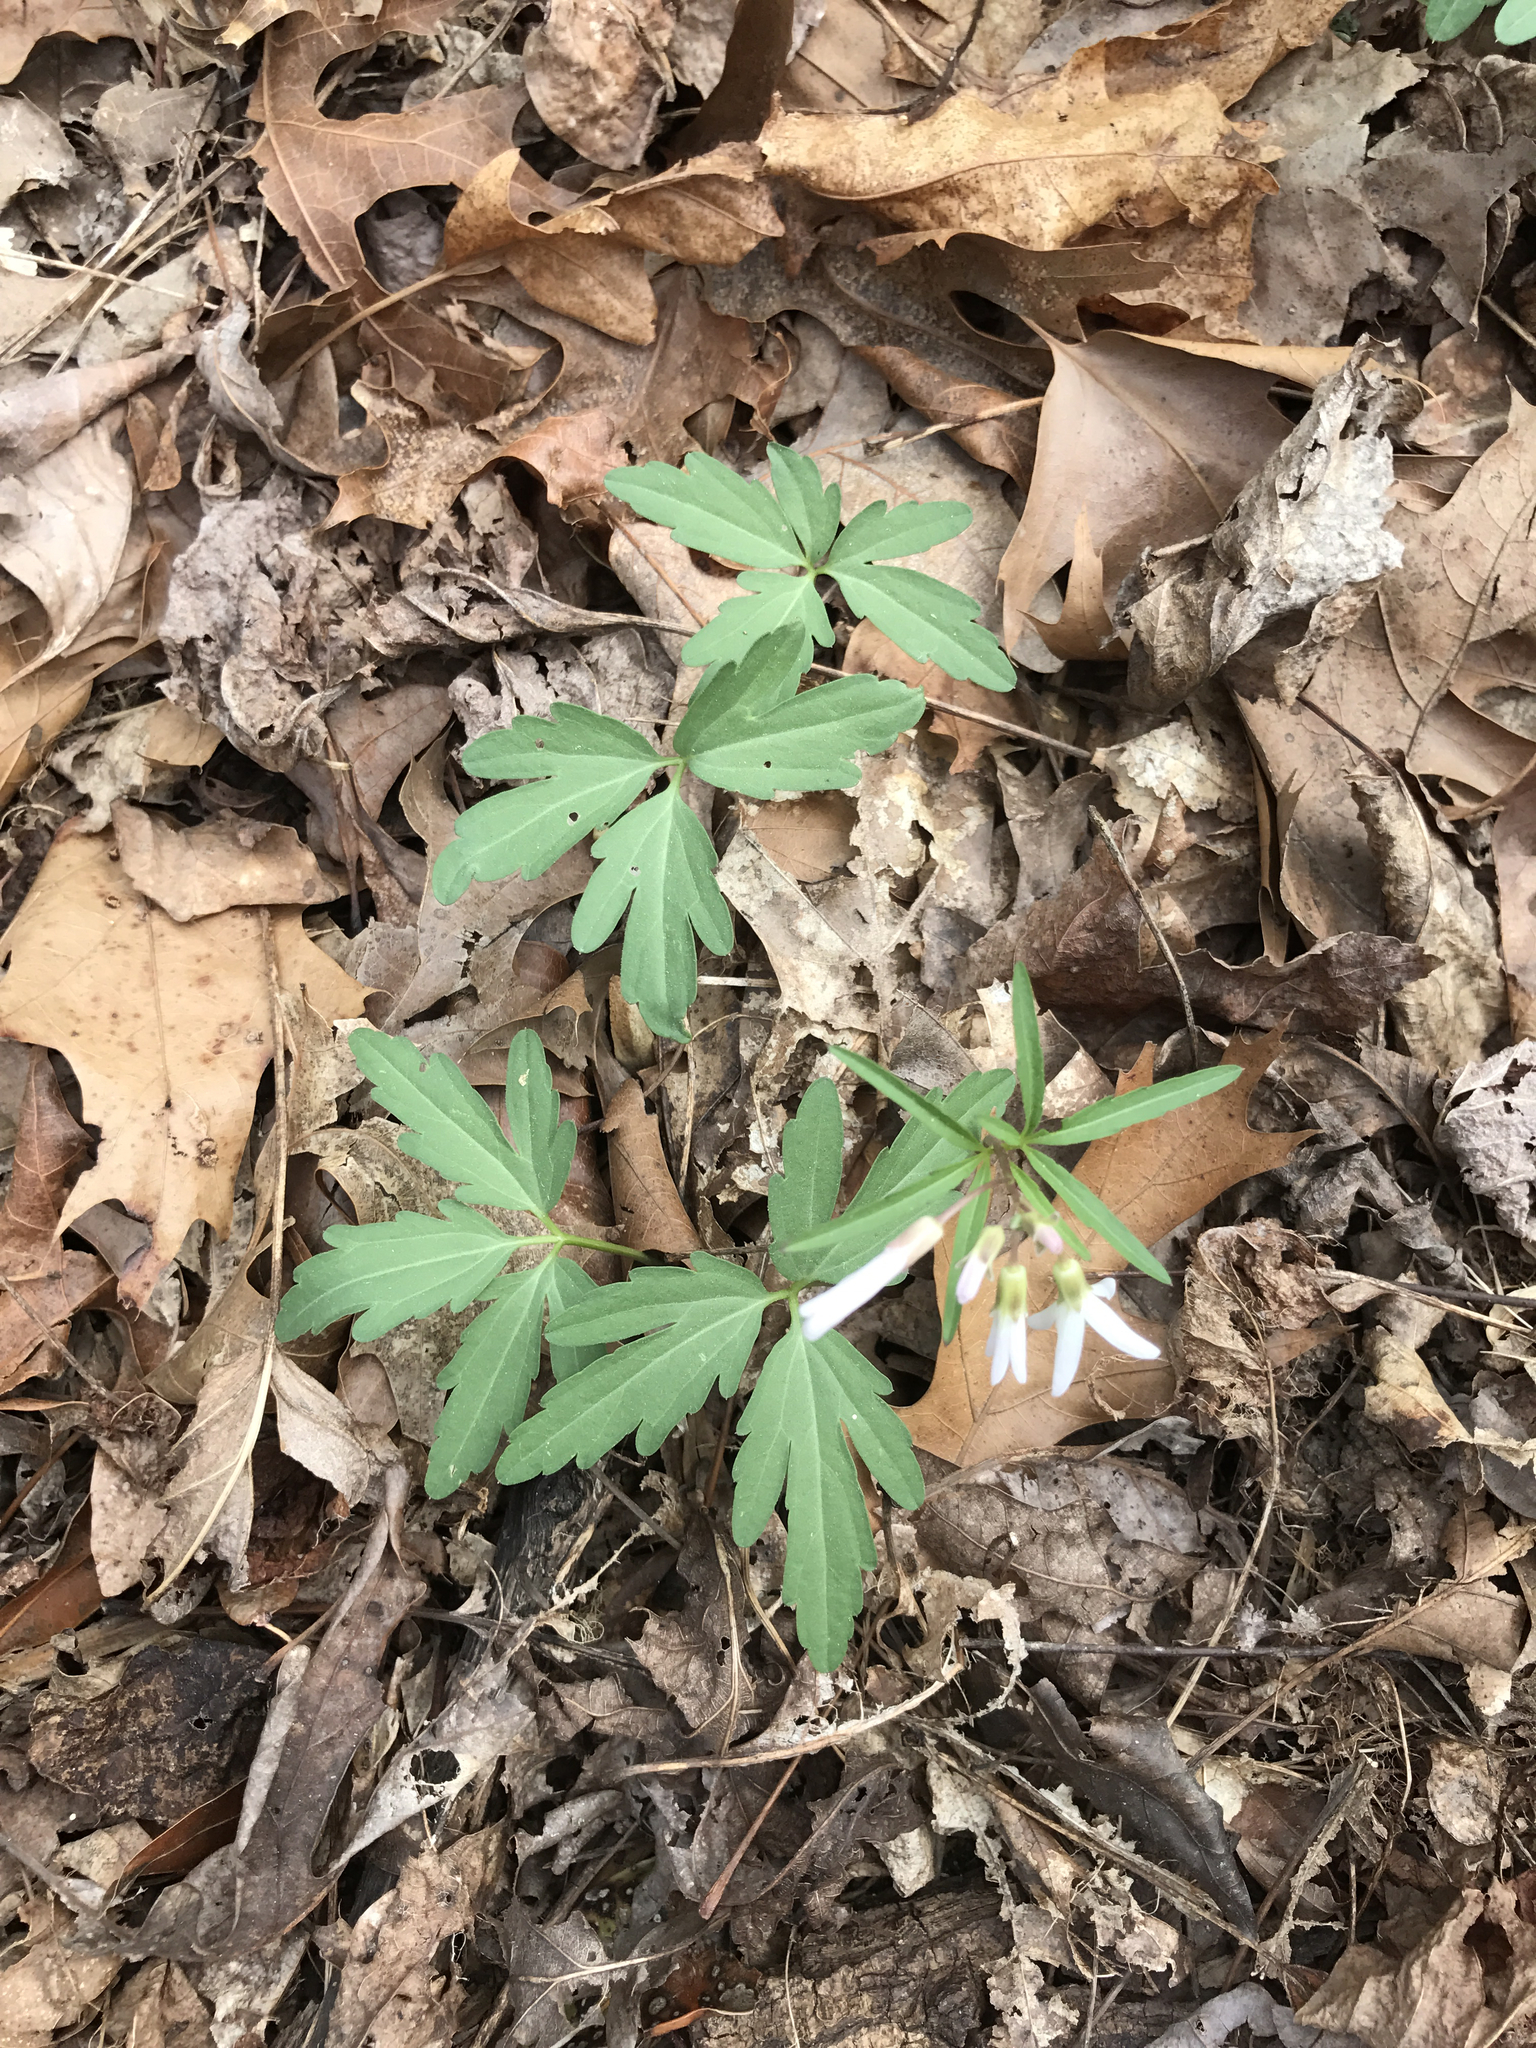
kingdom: Plantae
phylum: Tracheophyta
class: Magnoliopsida
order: Brassicales
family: Brassicaceae
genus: Cardamine
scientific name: Cardamine angustata
